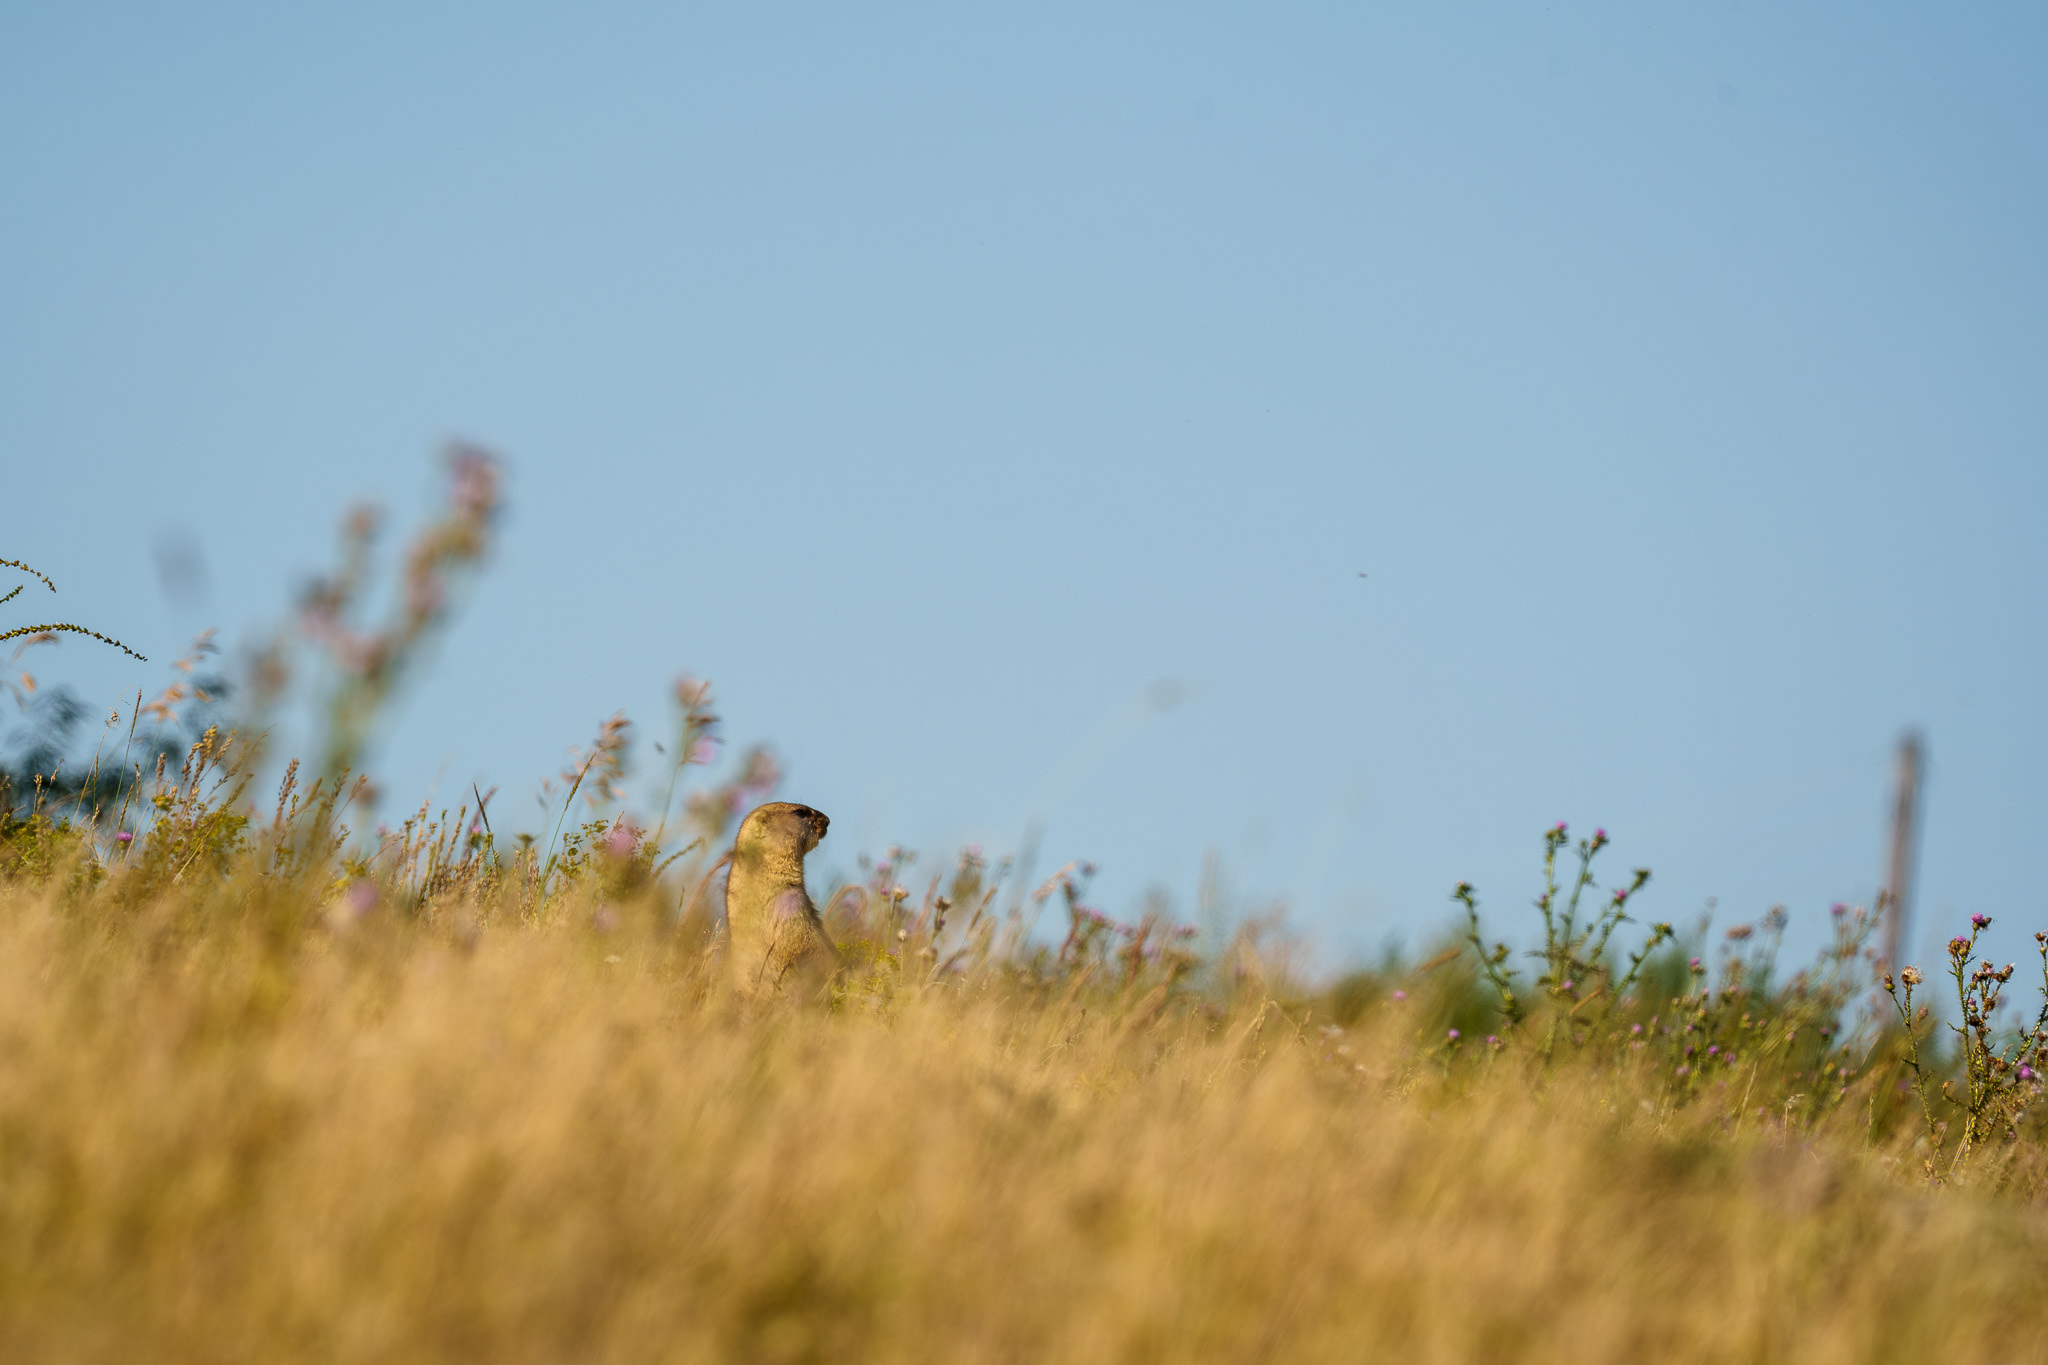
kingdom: Animalia
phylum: Chordata
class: Mammalia
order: Rodentia
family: Sciuridae
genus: Marmota
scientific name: Marmota bobak
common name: Bobak marmot
